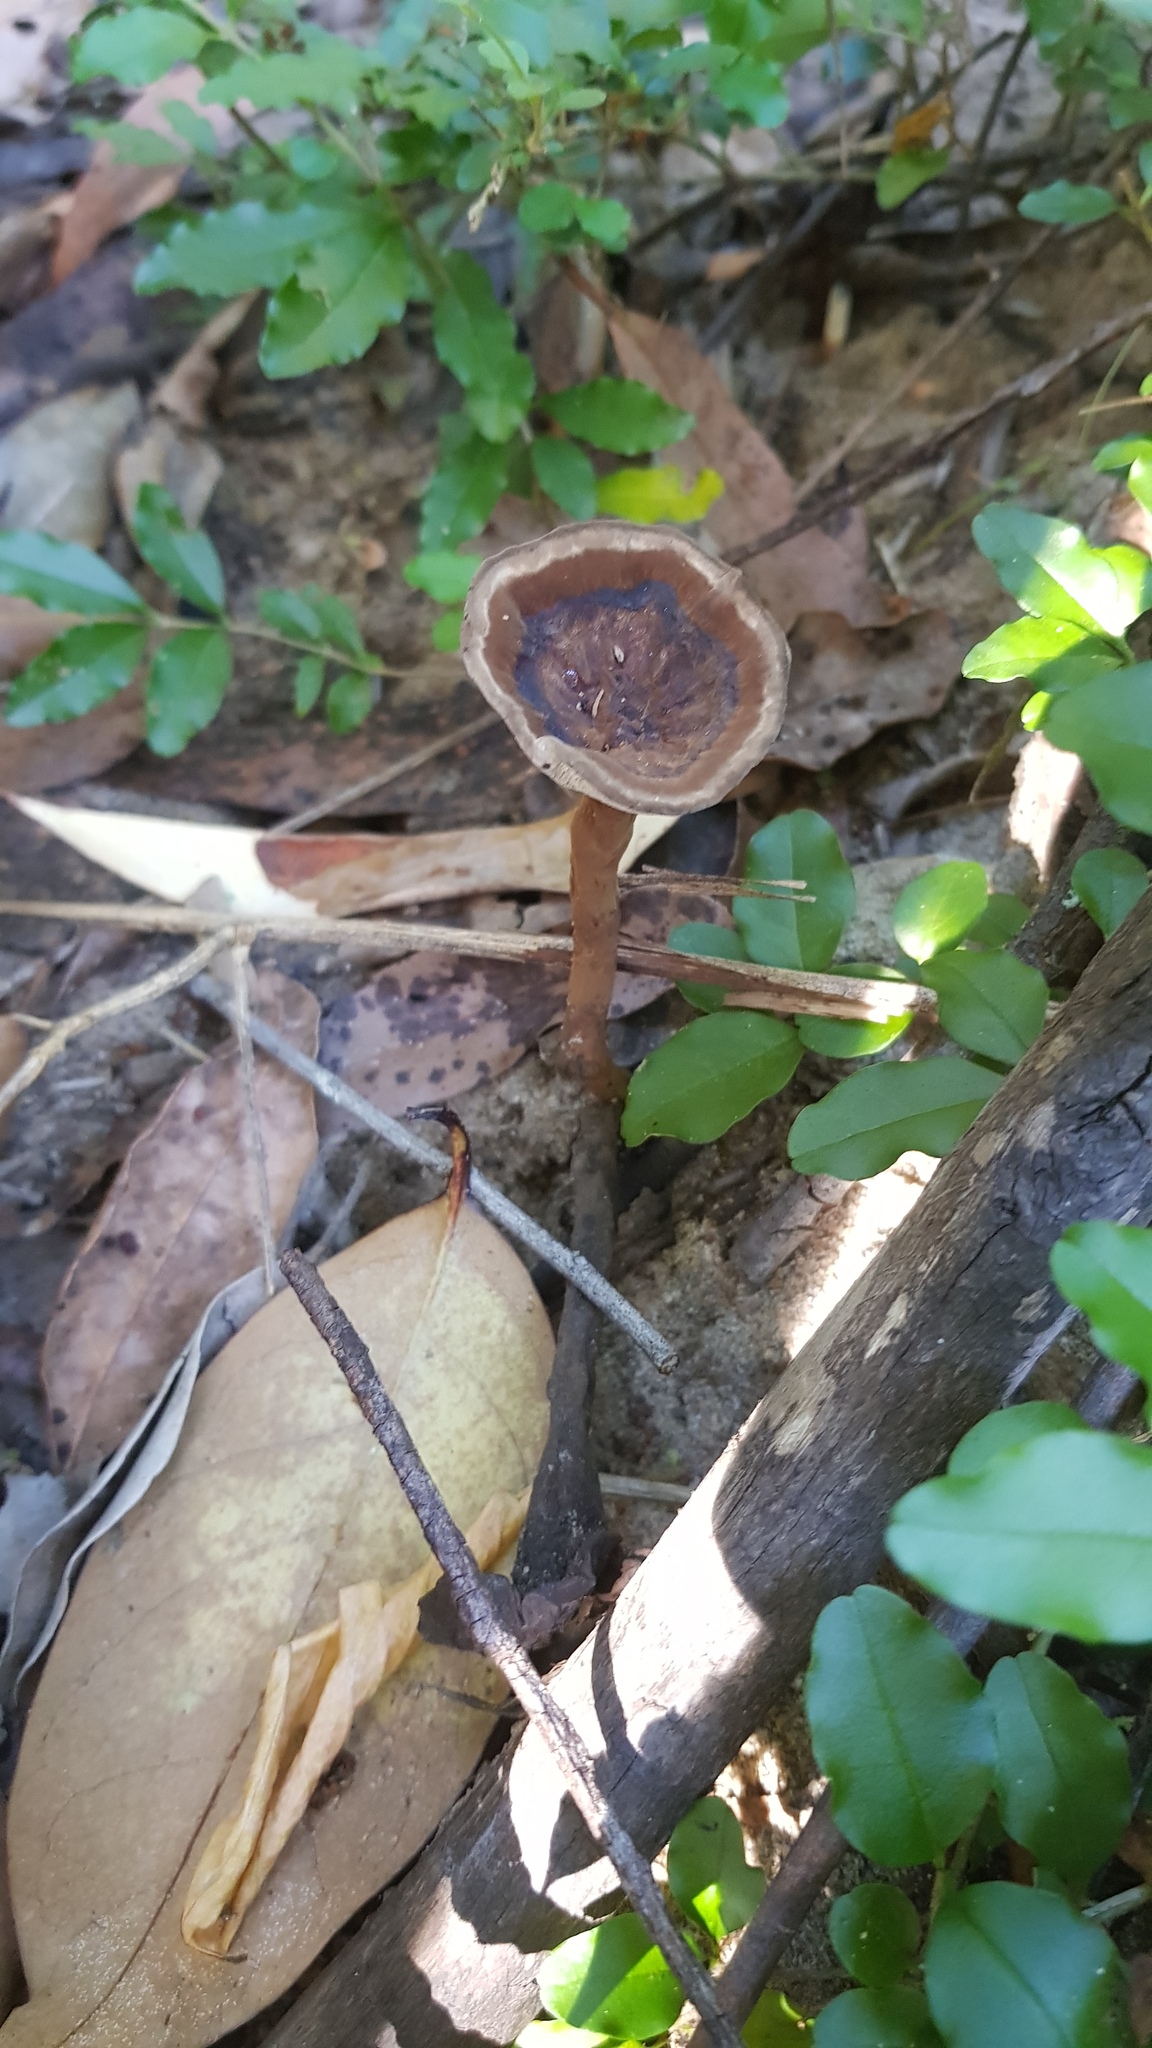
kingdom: Fungi
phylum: Basidiomycota
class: Agaricomycetes
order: Polyporales
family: Ganodermataceae
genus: Sanguinoderma
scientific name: Sanguinoderma rude
